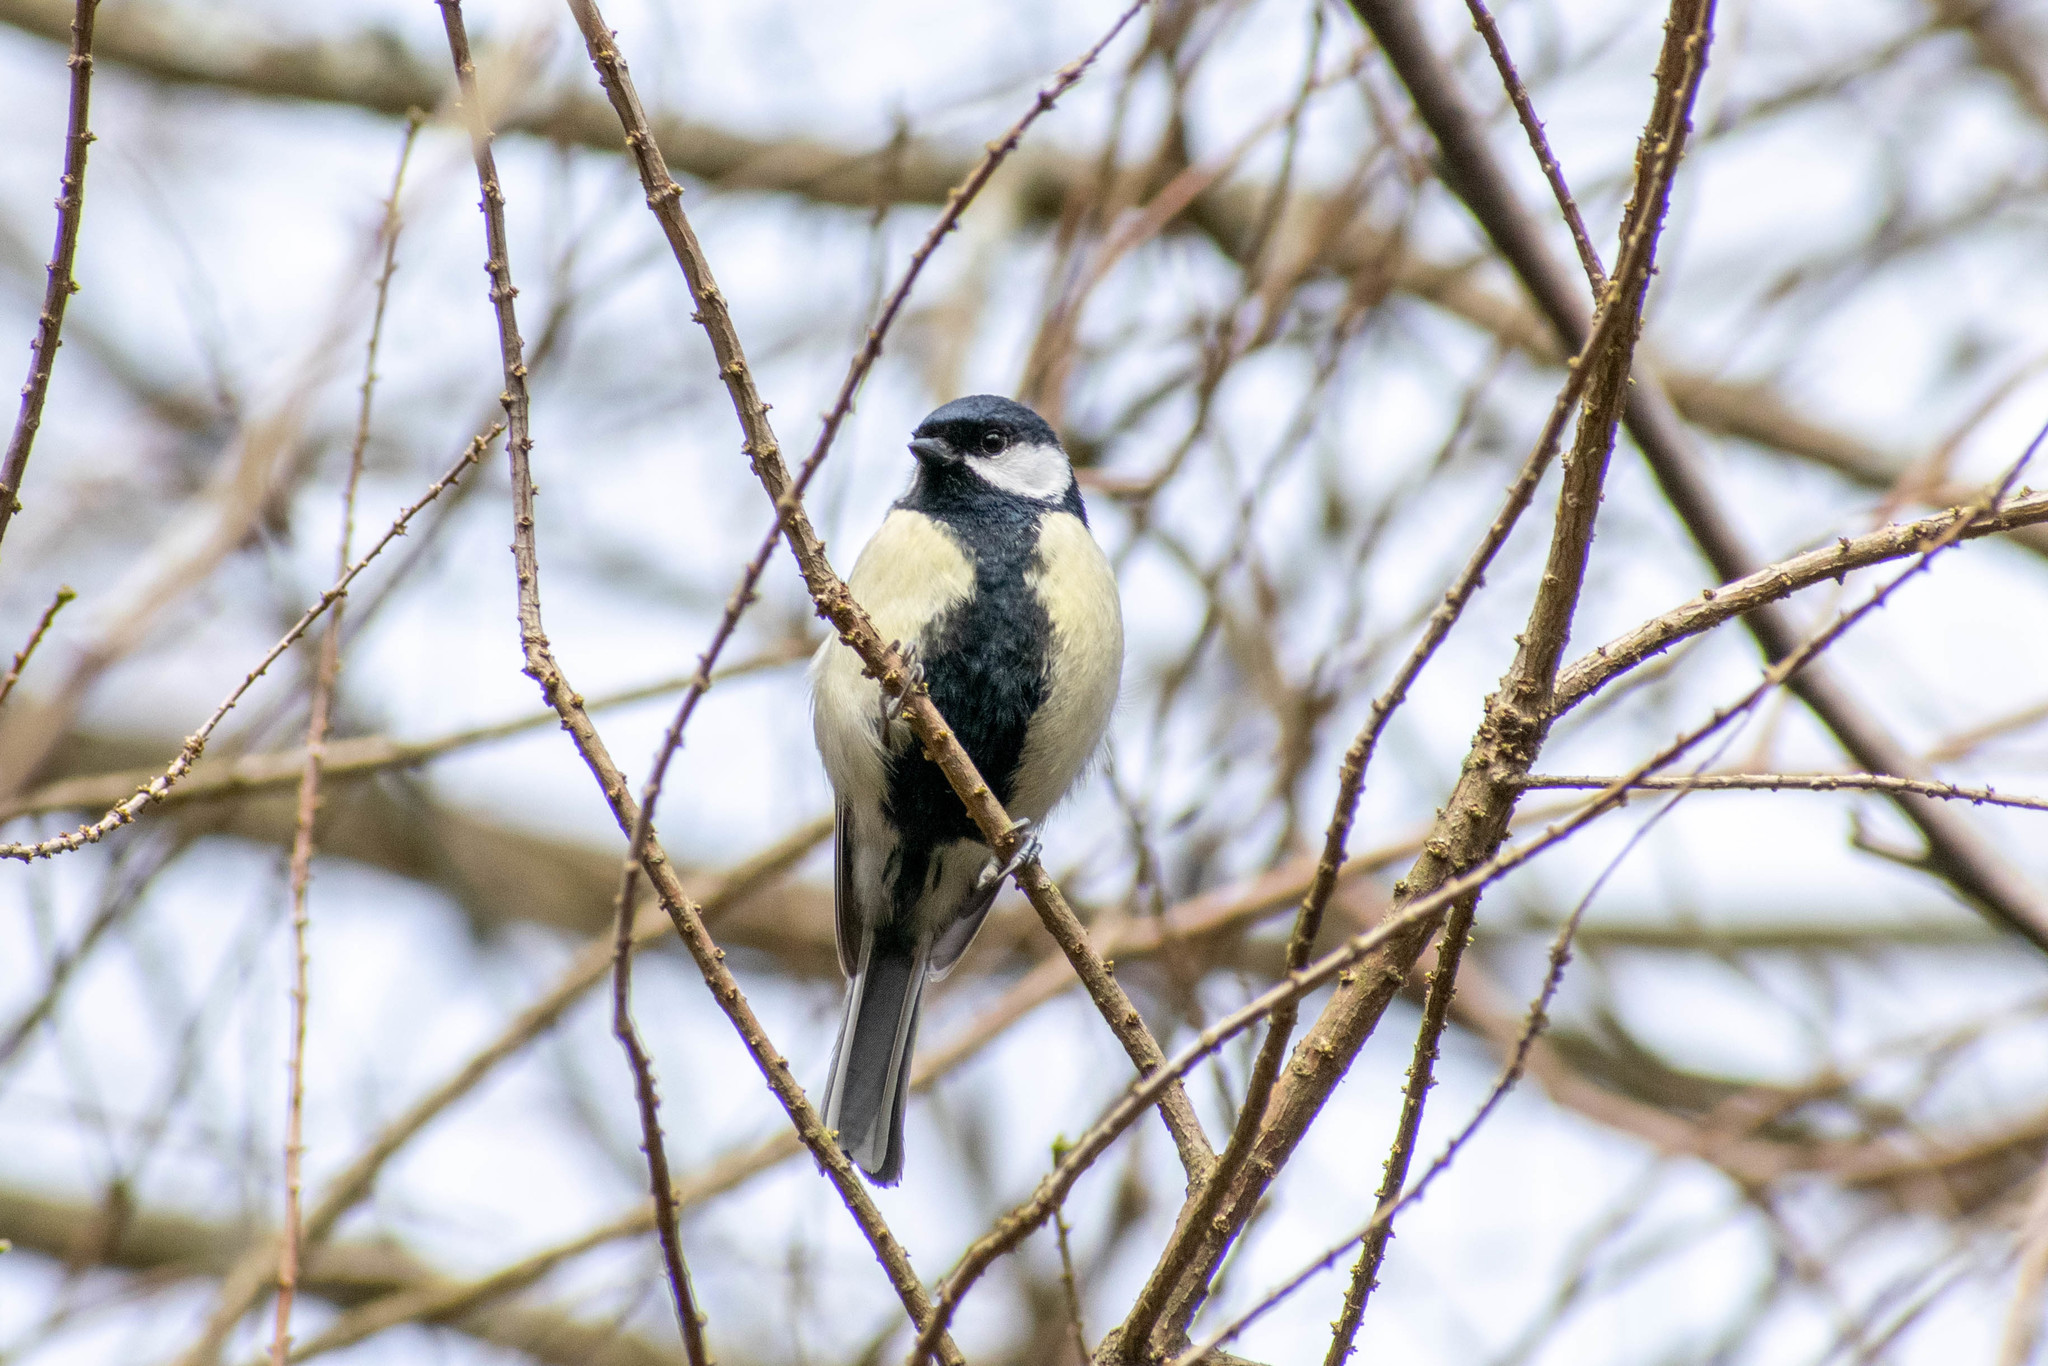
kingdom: Animalia
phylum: Chordata
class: Aves
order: Passeriformes
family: Paridae
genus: Parus
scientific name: Parus major
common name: Great tit
